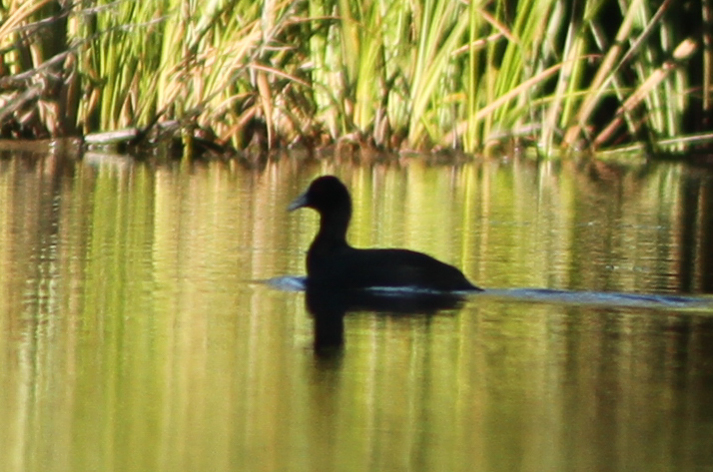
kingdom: Animalia
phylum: Chordata
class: Aves
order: Gruiformes
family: Rallidae
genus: Fulica
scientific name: Fulica atra
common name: Eurasian coot
